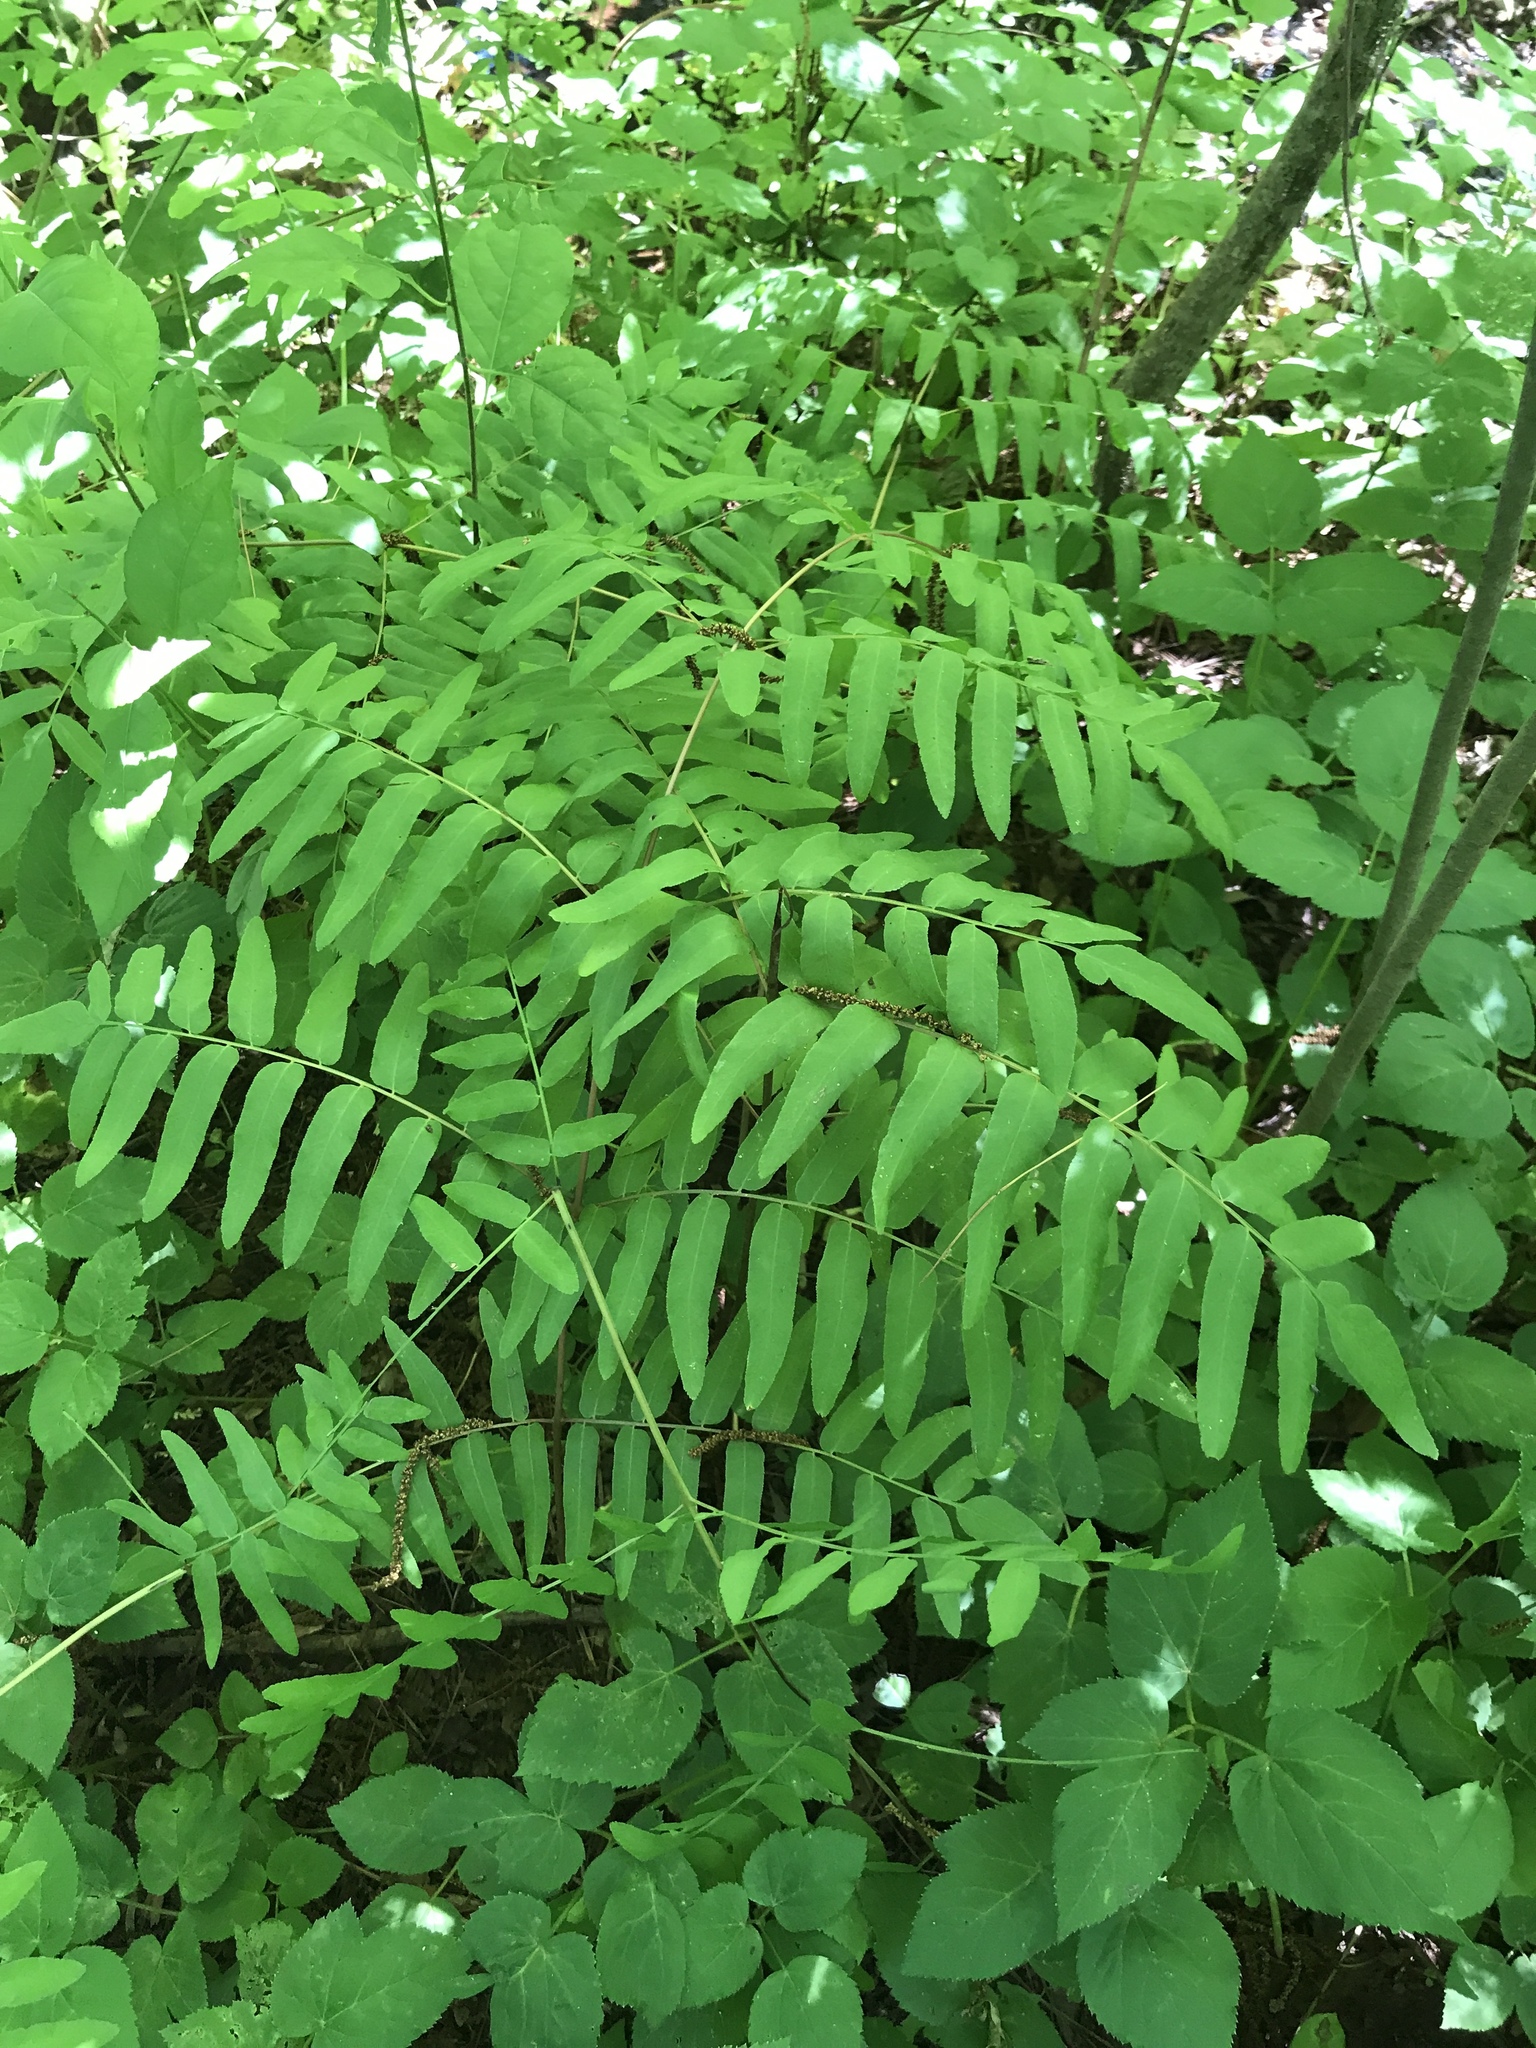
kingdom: Plantae
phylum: Tracheophyta
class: Polypodiopsida
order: Osmundales
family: Osmundaceae
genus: Osmunda
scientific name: Osmunda spectabilis
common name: American royal fern
